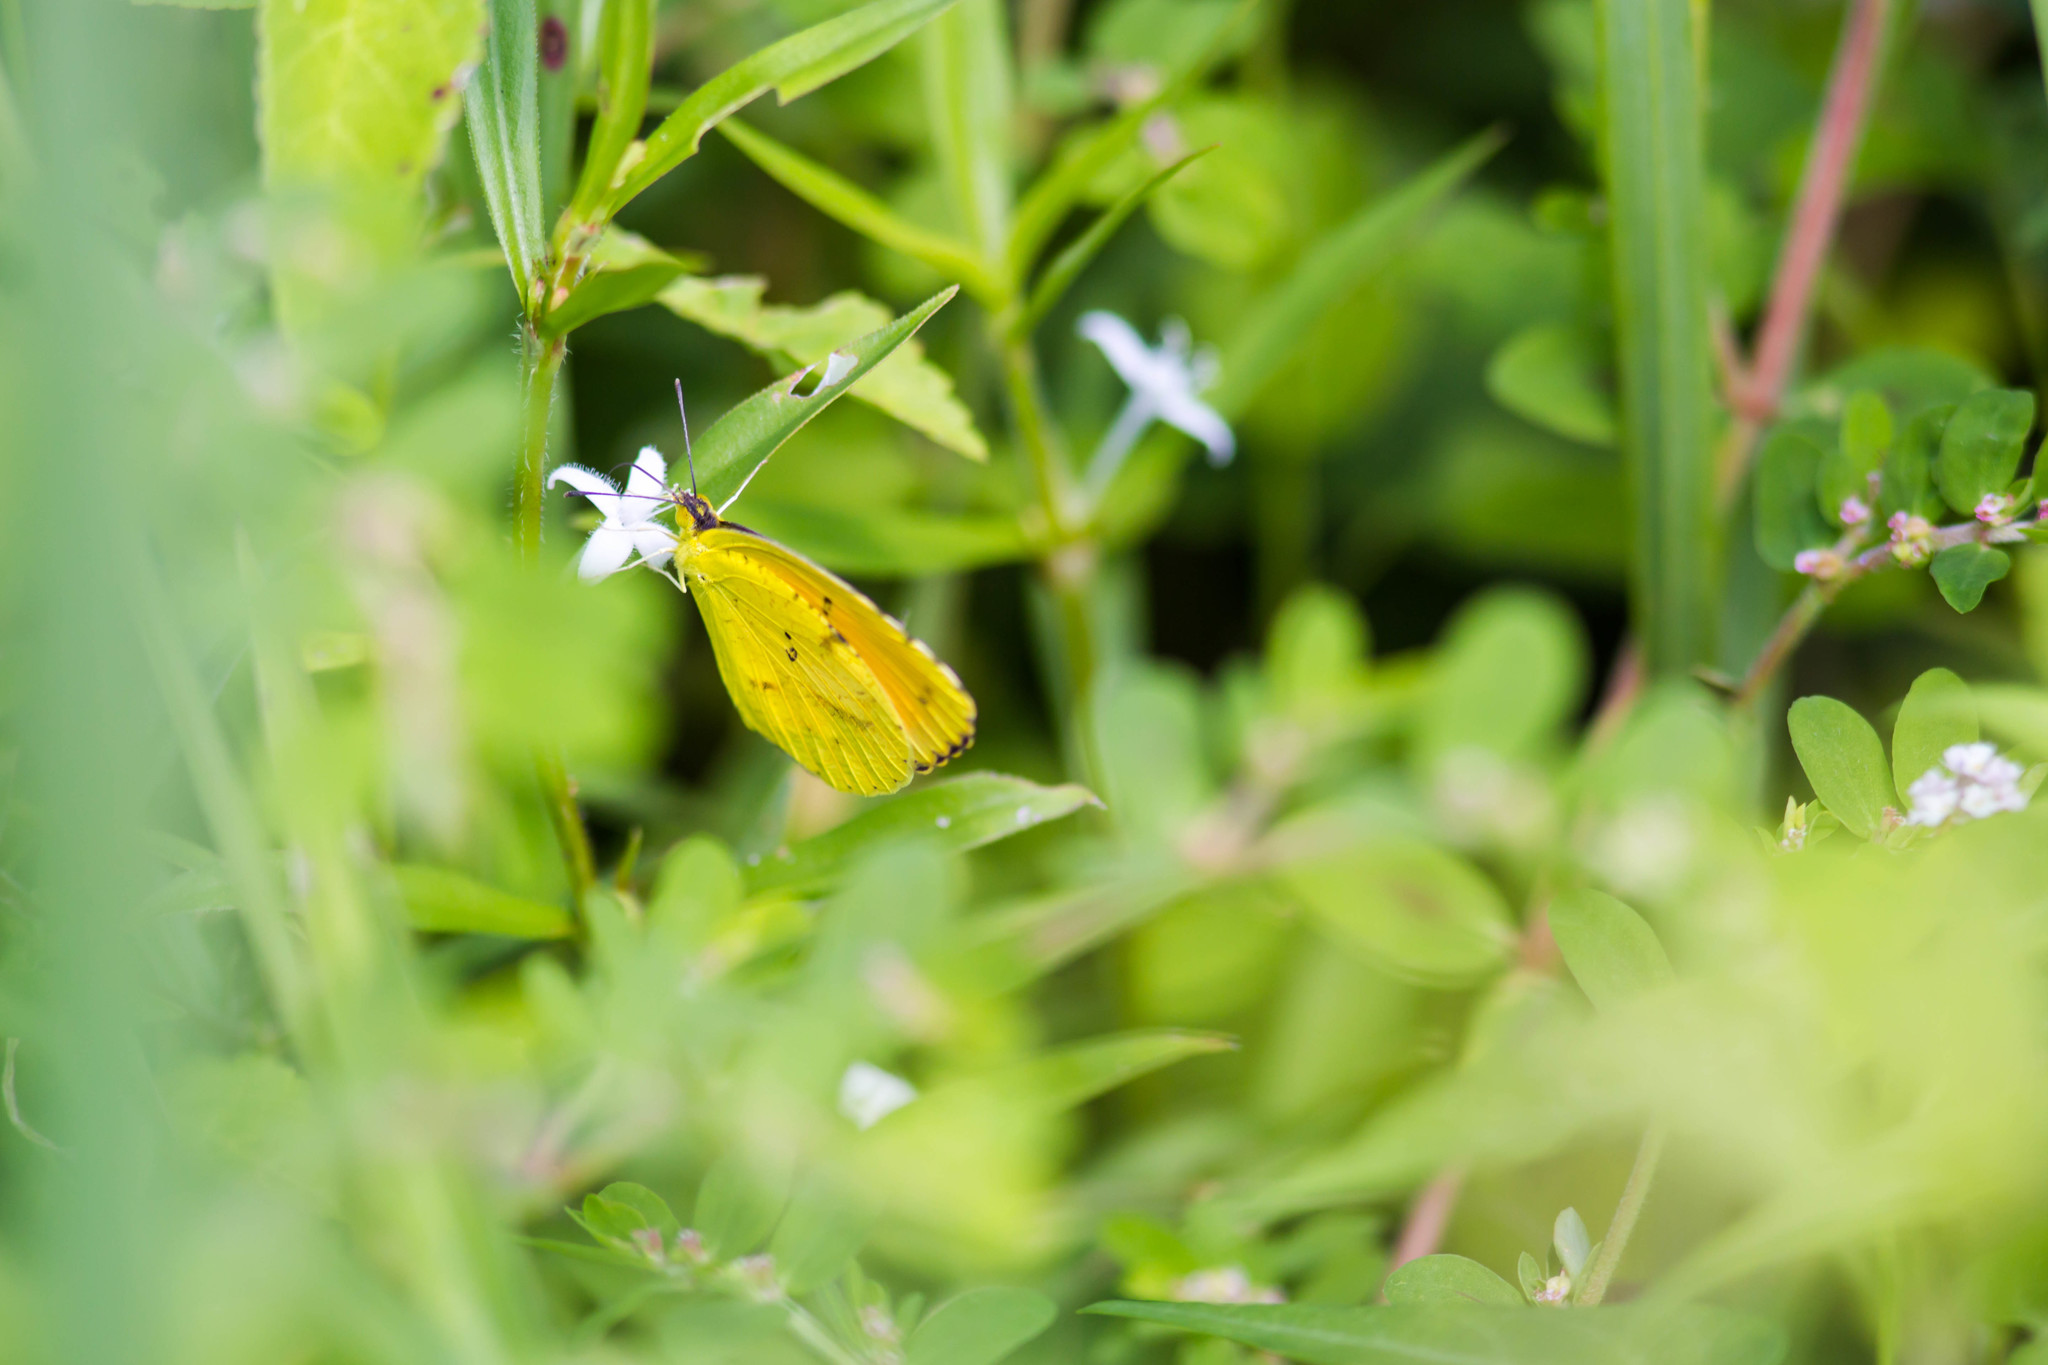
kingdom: Animalia
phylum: Arthropoda
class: Insecta
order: Lepidoptera
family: Pieridae
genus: Abaeis
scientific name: Abaeis nicippe
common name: Sleepy orange
